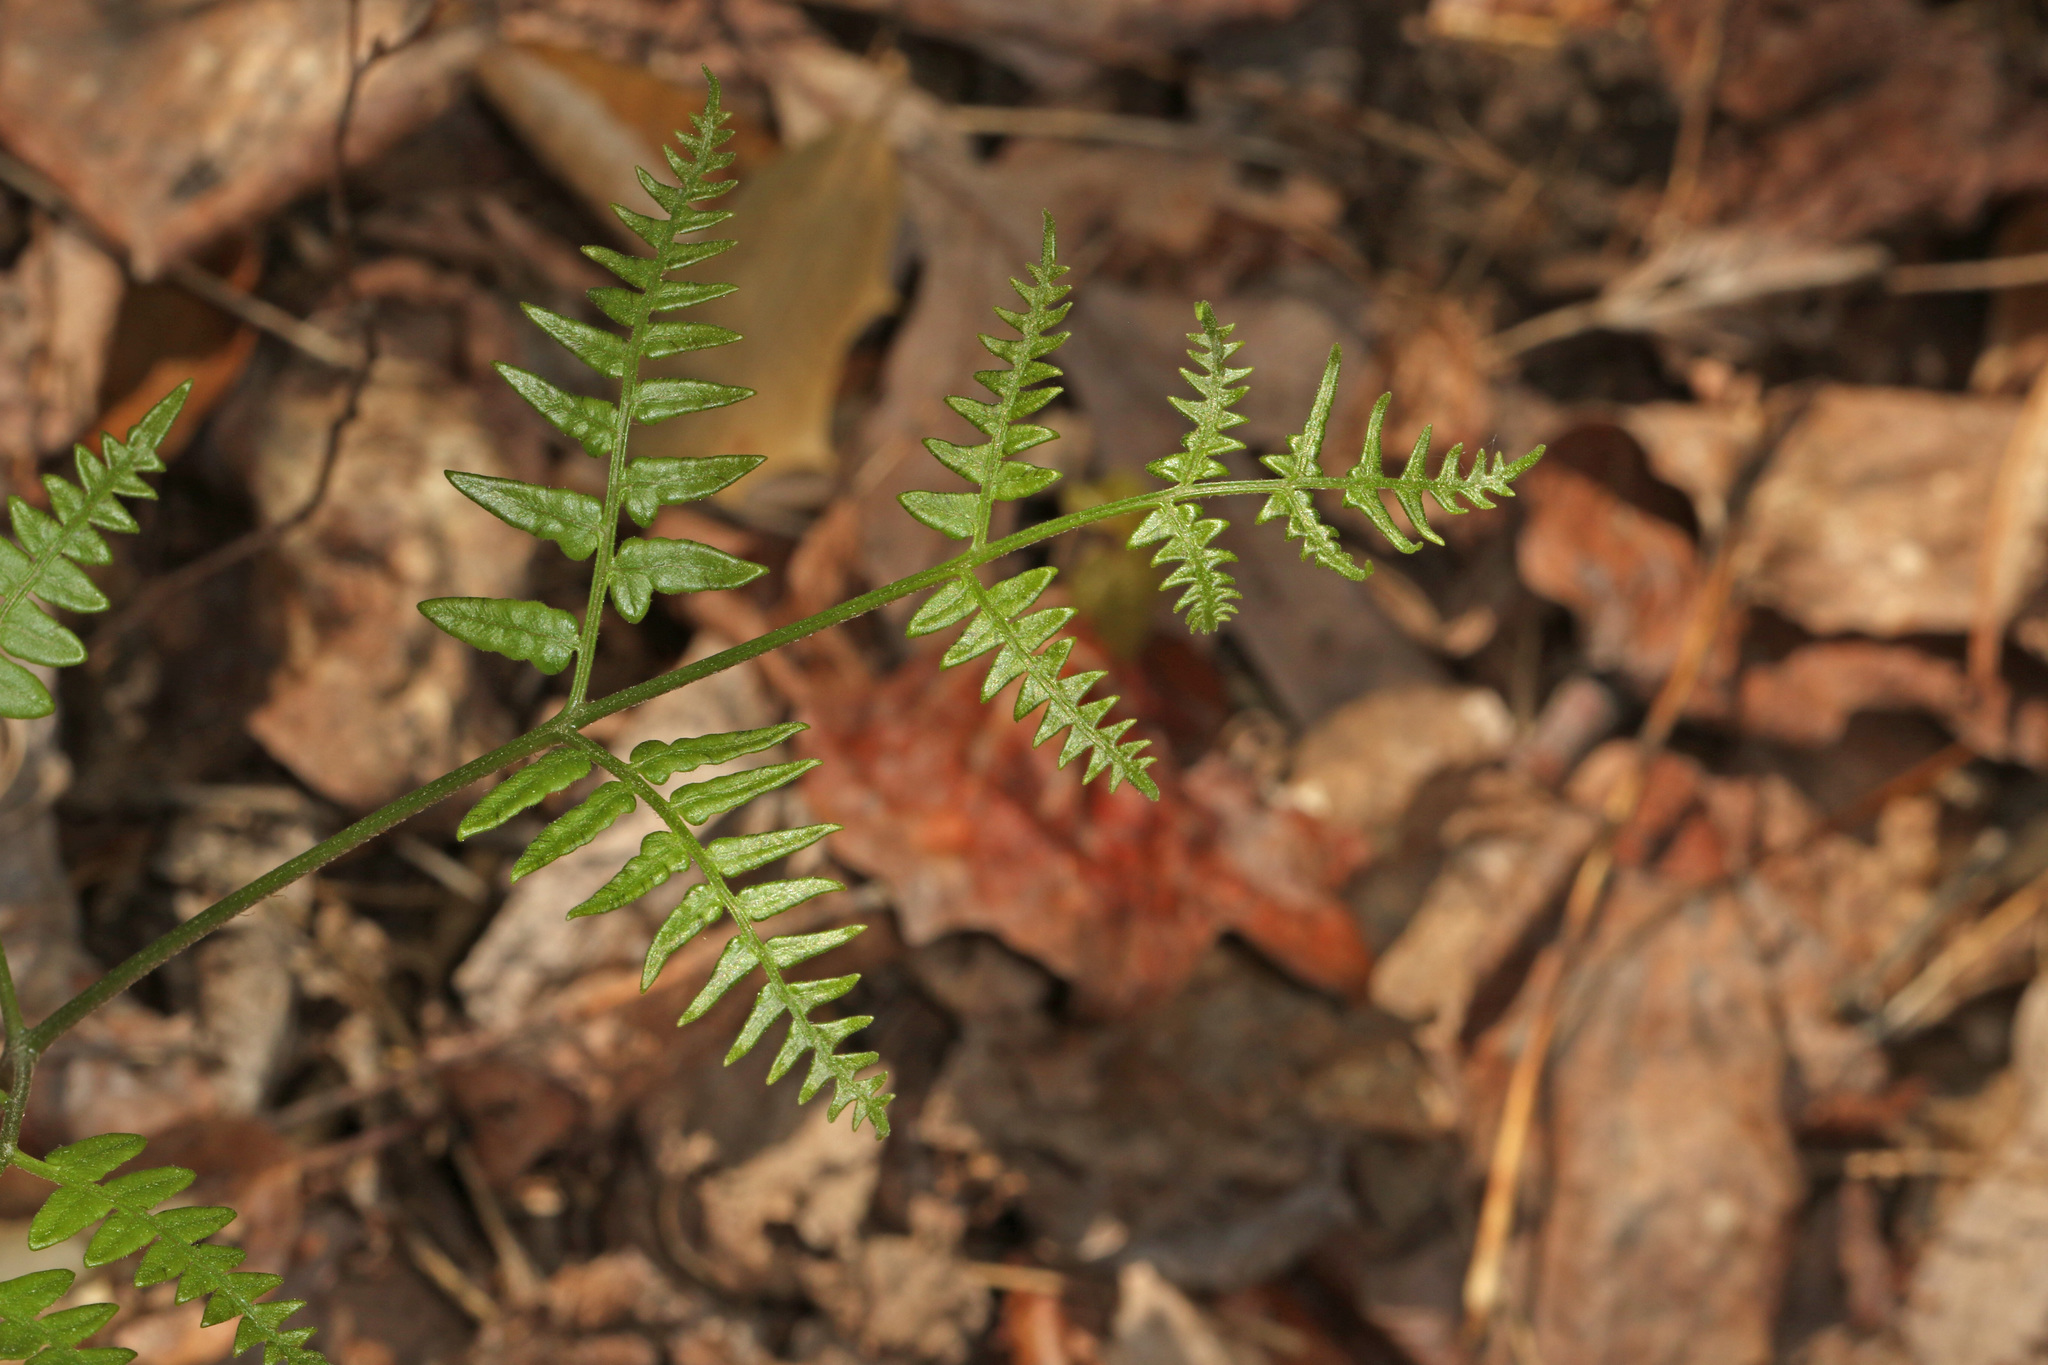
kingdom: Plantae
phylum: Tracheophyta
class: Polypodiopsida
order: Polypodiales
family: Dennstaedtiaceae
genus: Pteridium
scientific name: Pteridium aquilinum
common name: Bracken
